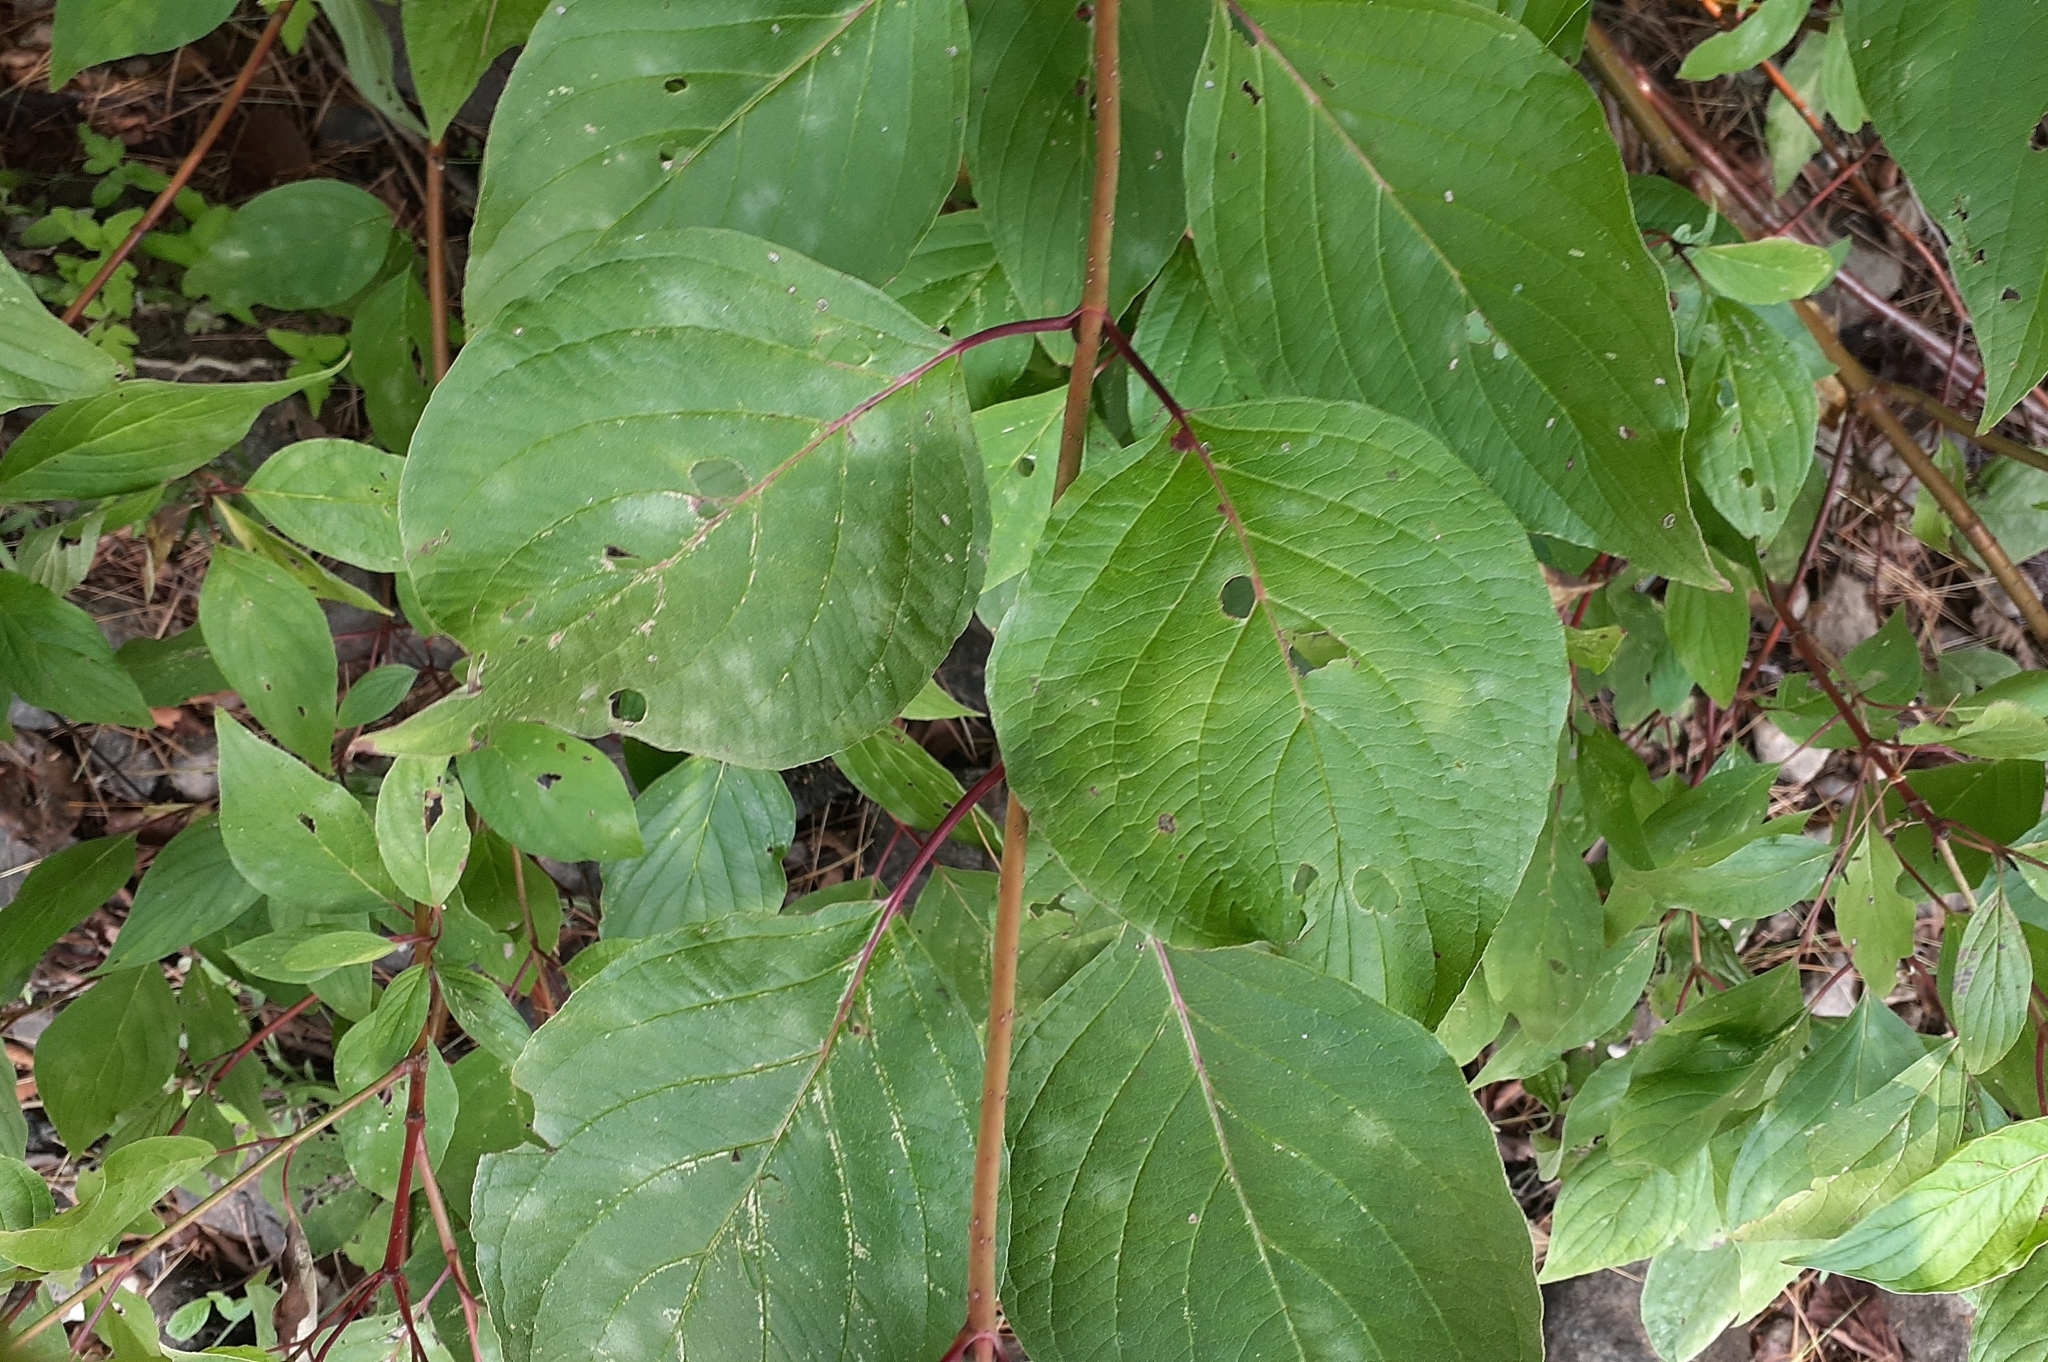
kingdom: Plantae
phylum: Tracheophyta
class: Magnoliopsida
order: Cornales
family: Cornaceae
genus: Cornus
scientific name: Cornus rugosa
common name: Round-leaf dogwood
